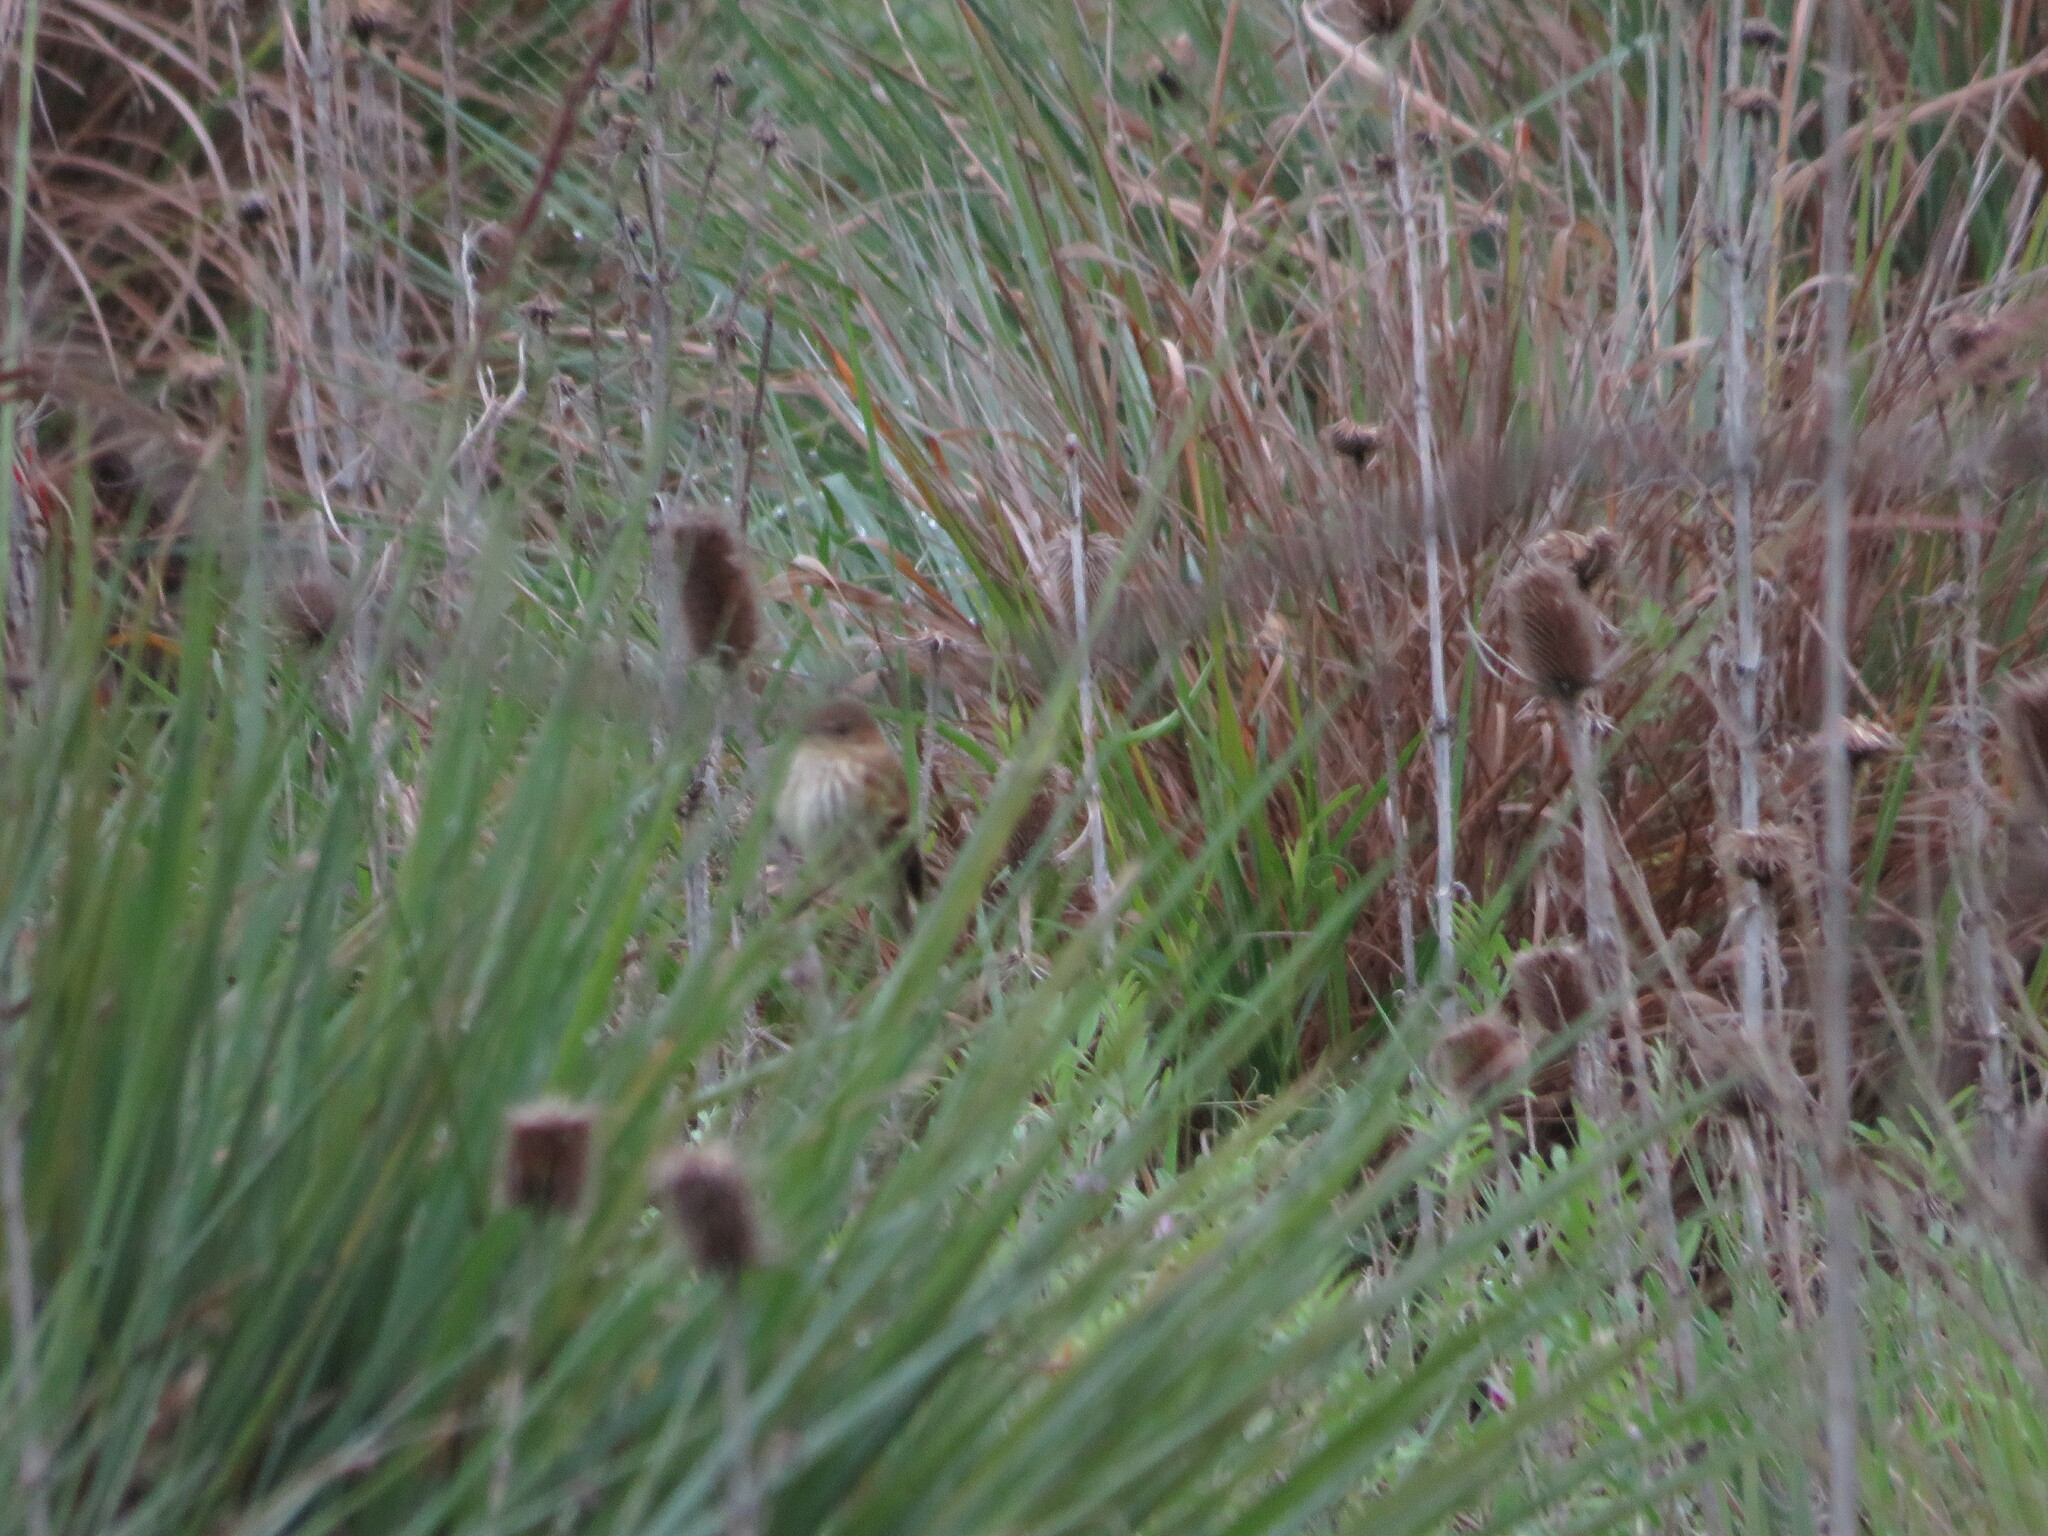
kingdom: Animalia
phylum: Chordata
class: Aves
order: Passeriformes
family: Tyrannidae
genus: Myiophobus
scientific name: Myiophobus fasciatus
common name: Bran-colored flycatcher
